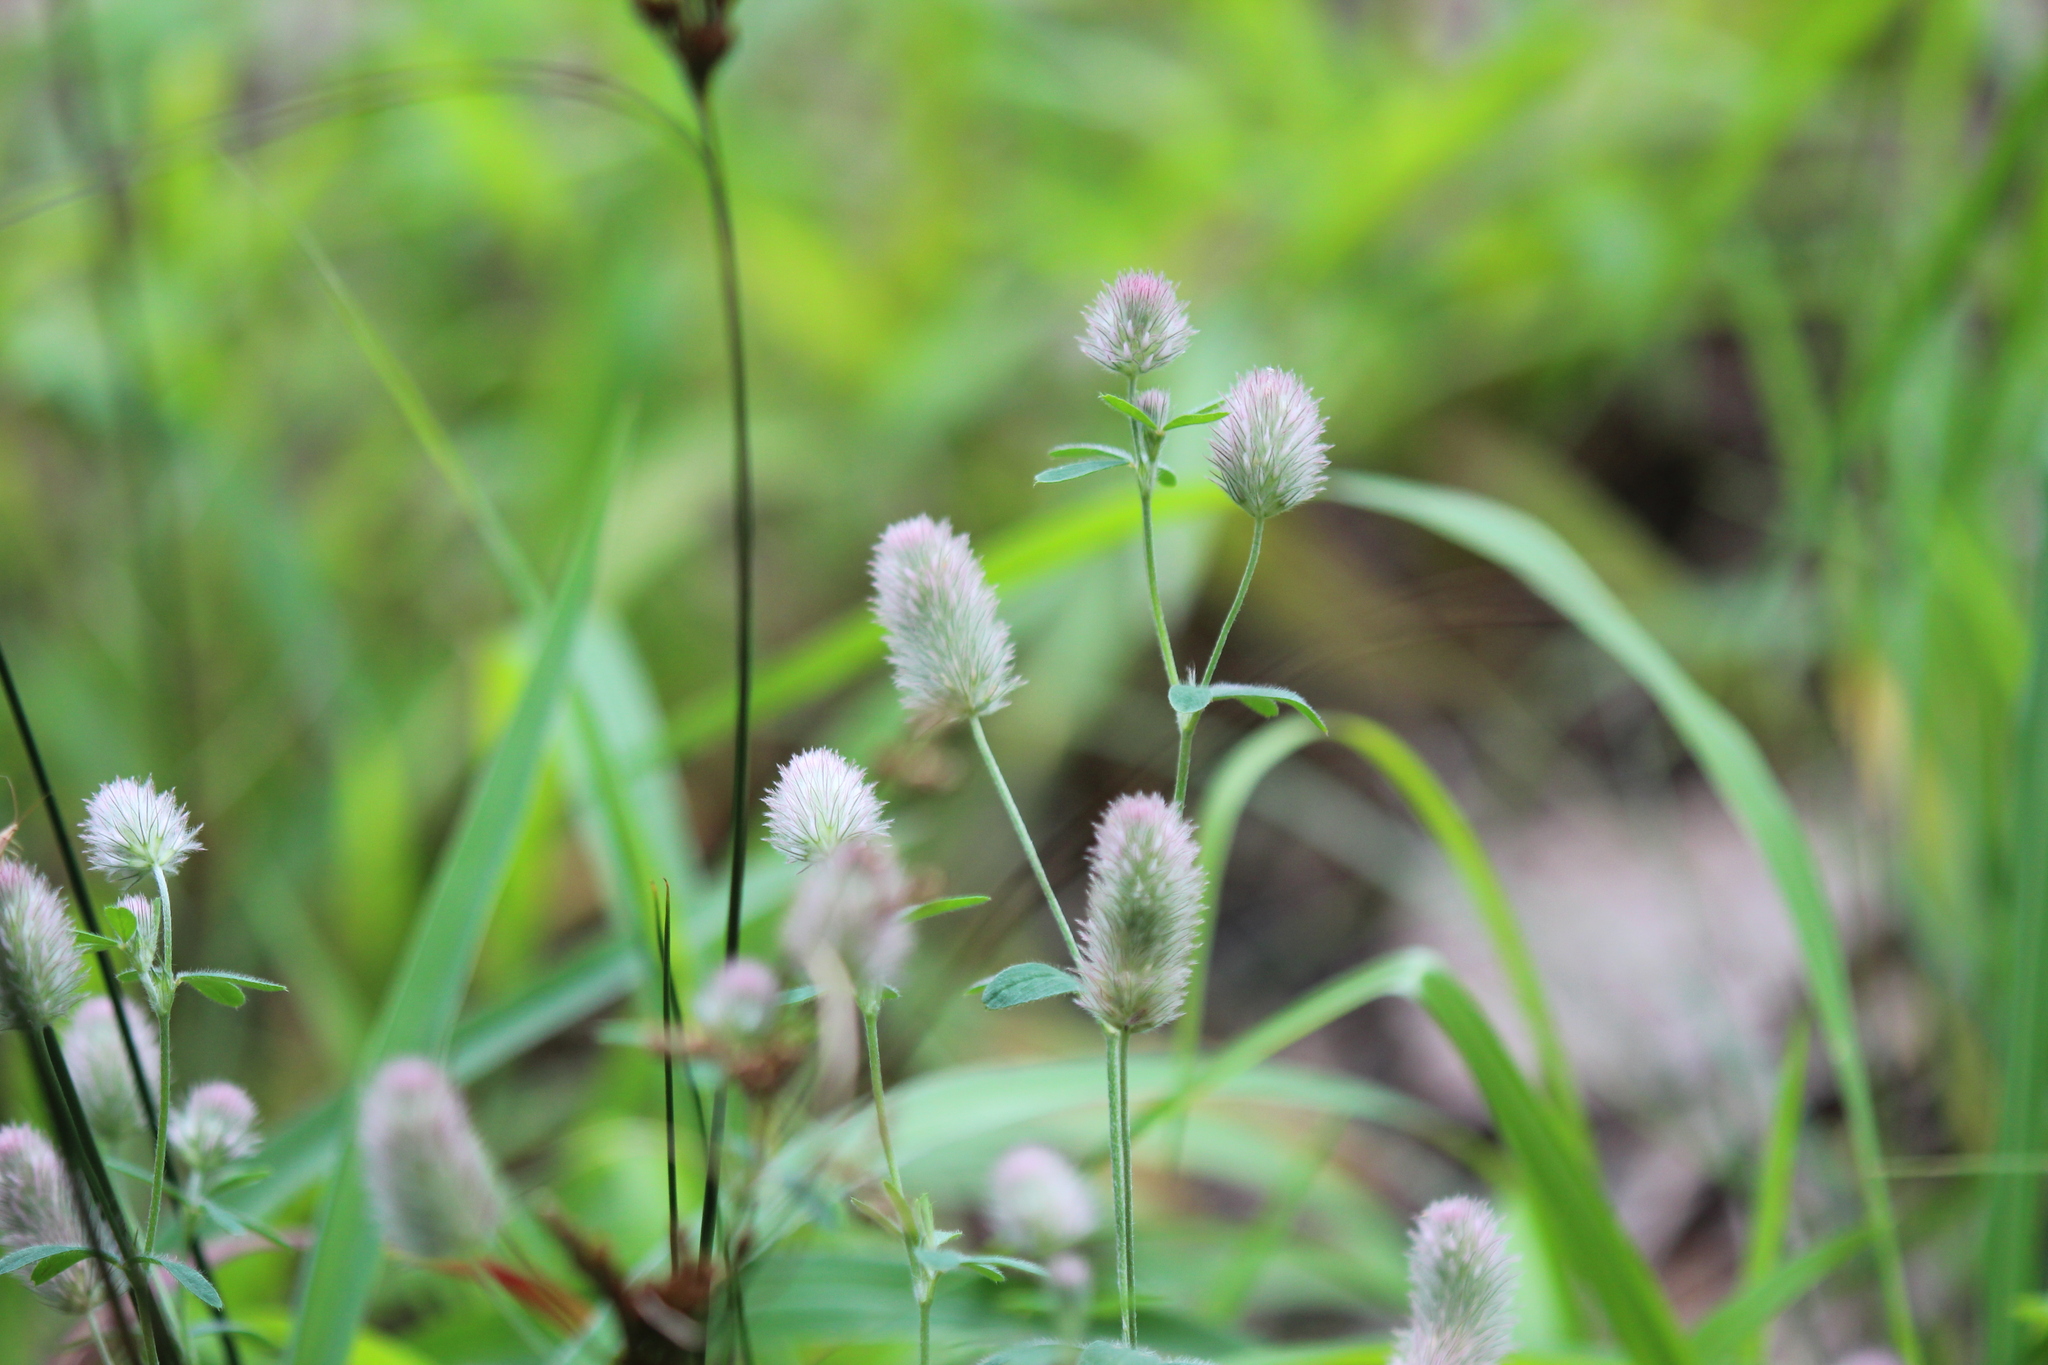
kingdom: Plantae
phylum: Tracheophyta
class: Magnoliopsida
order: Fabales
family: Fabaceae
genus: Trifolium
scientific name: Trifolium arvense
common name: Hare's-foot clover
